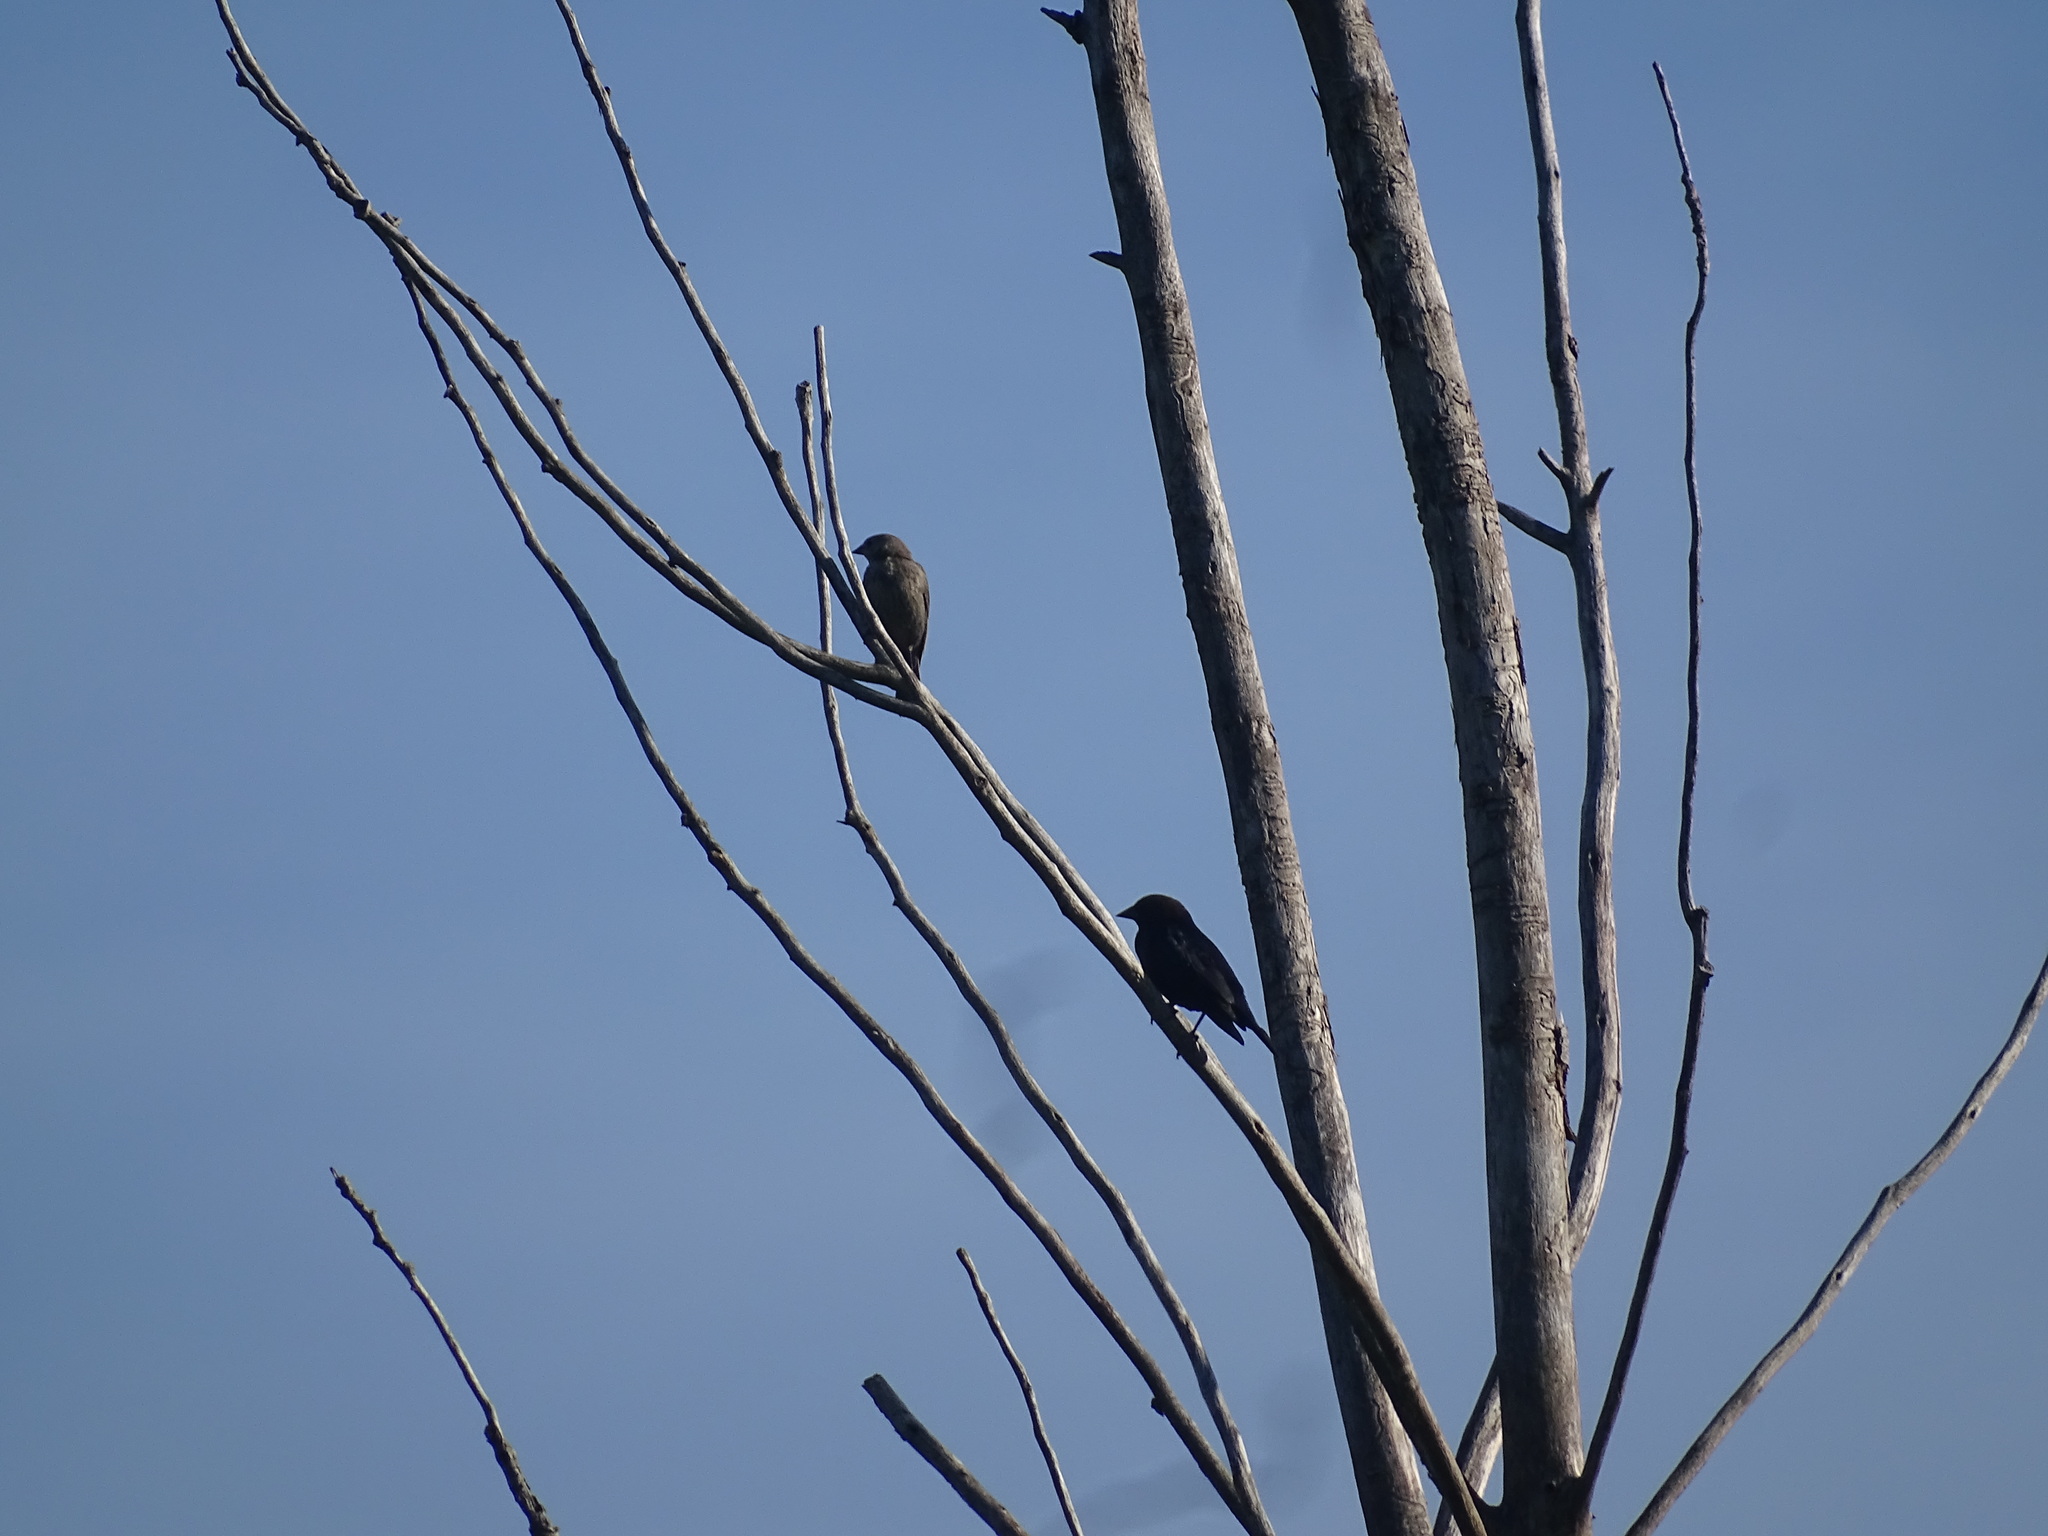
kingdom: Animalia
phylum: Chordata
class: Aves
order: Passeriformes
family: Icteridae
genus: Molothrus
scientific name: Molothrus ater
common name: Brown-headed cowbird
